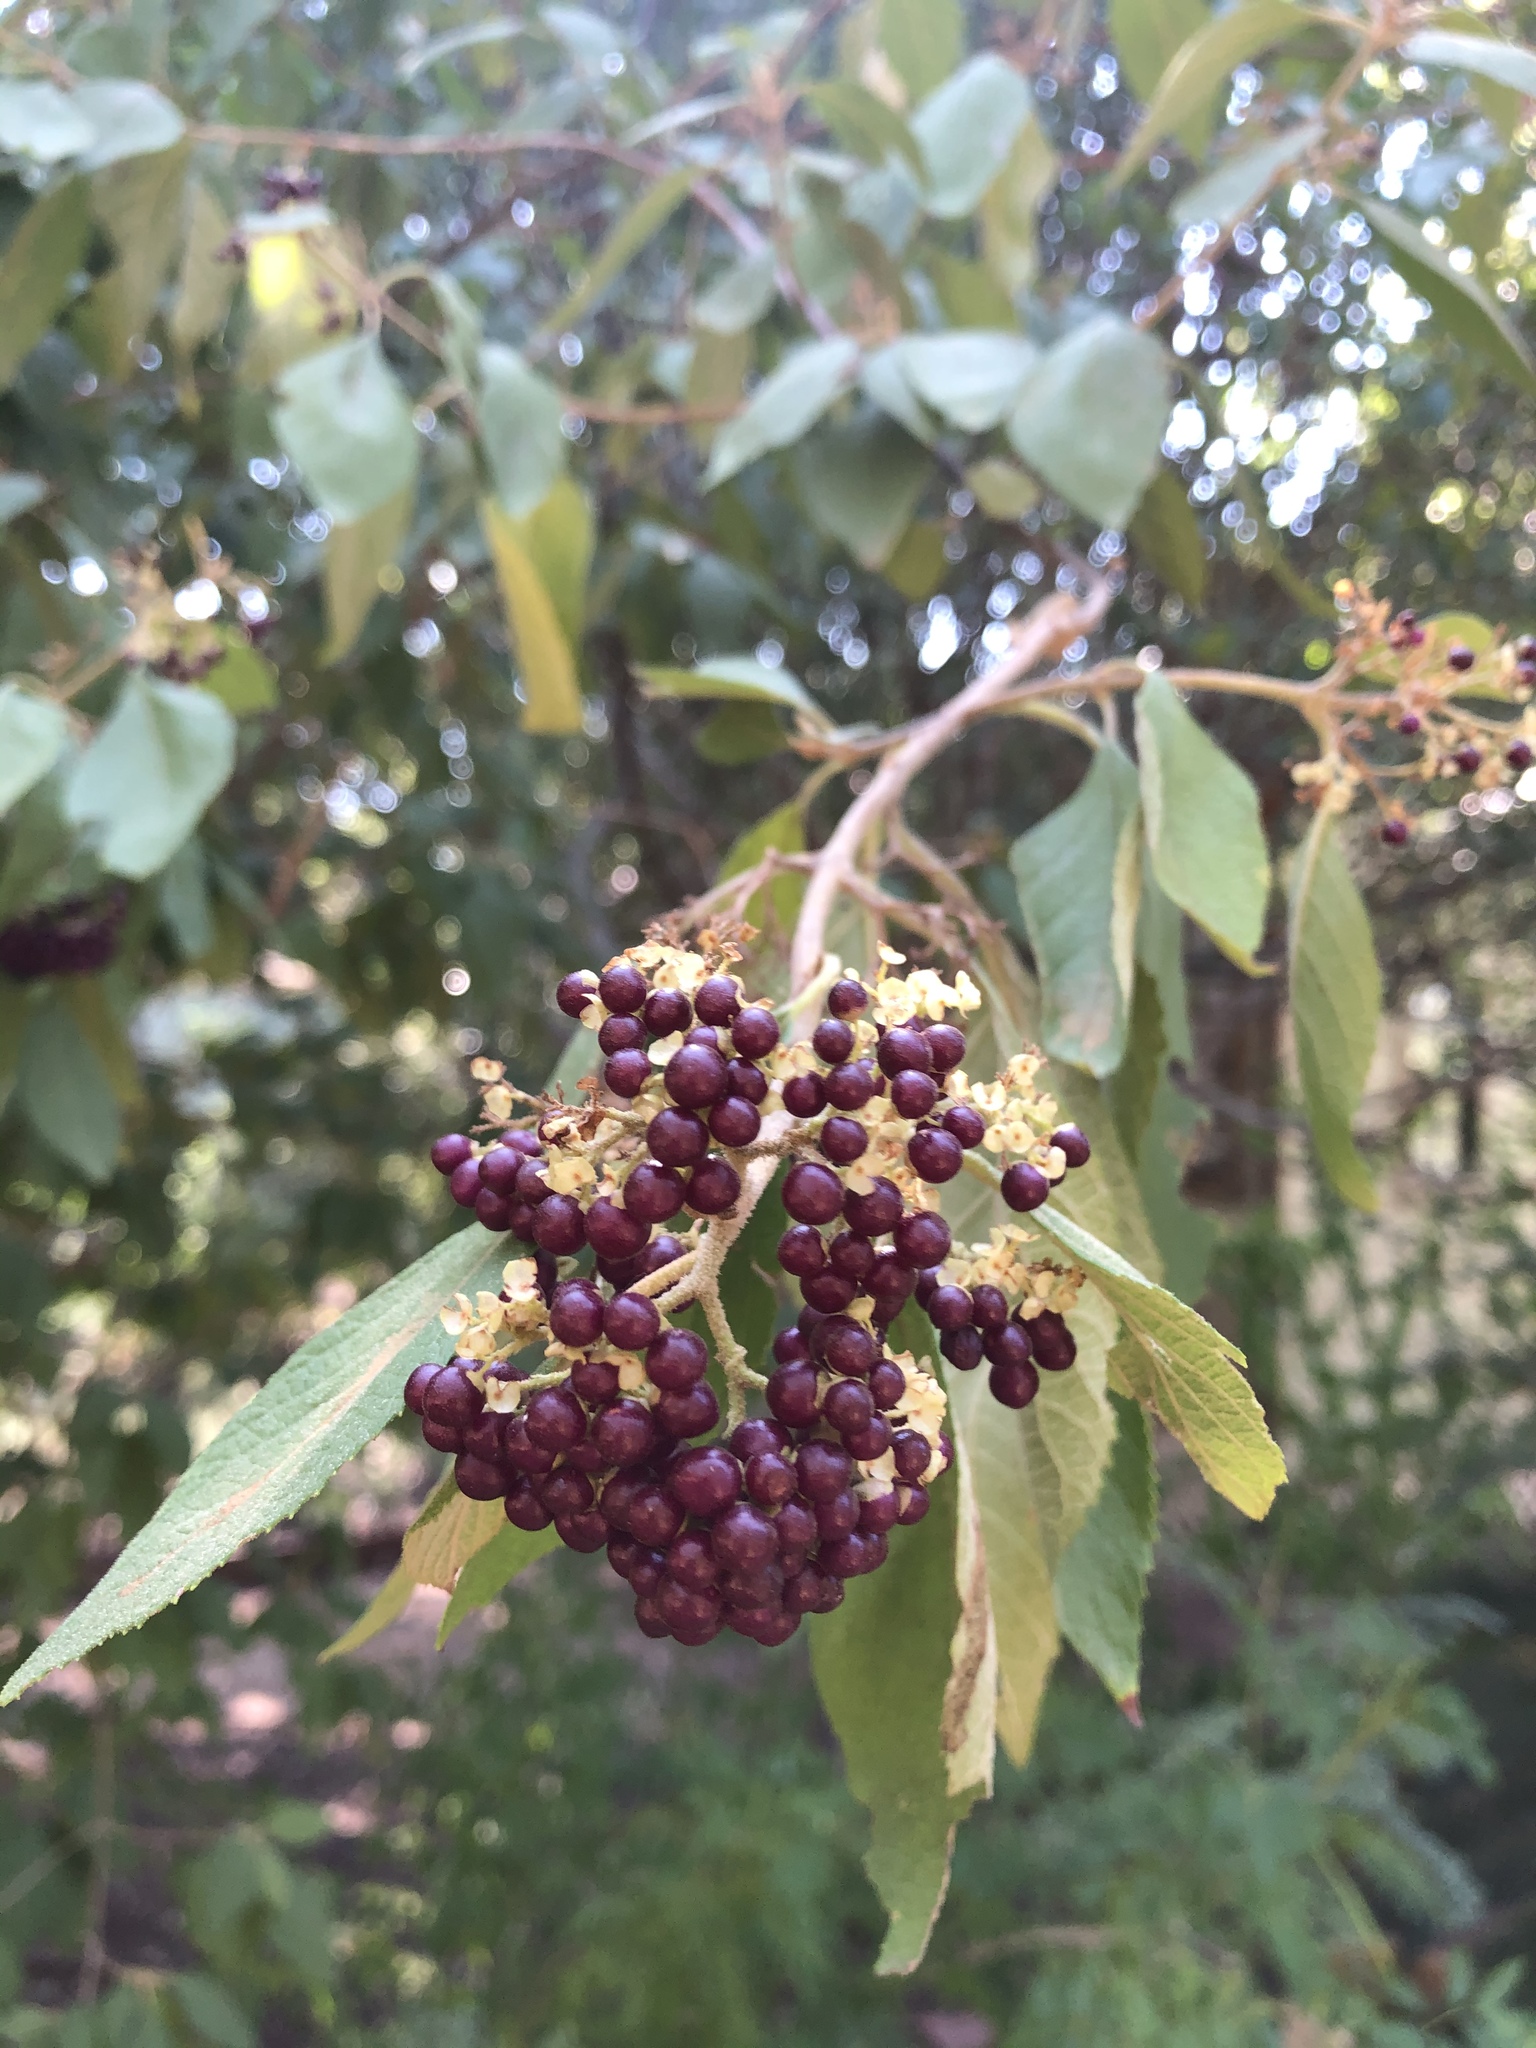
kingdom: Plantae
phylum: Tracheophyta
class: Magnoliopsida
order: Lamiales
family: Lamiaceae
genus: Callicarpa
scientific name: Callicarpa americana
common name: American beautyberry
